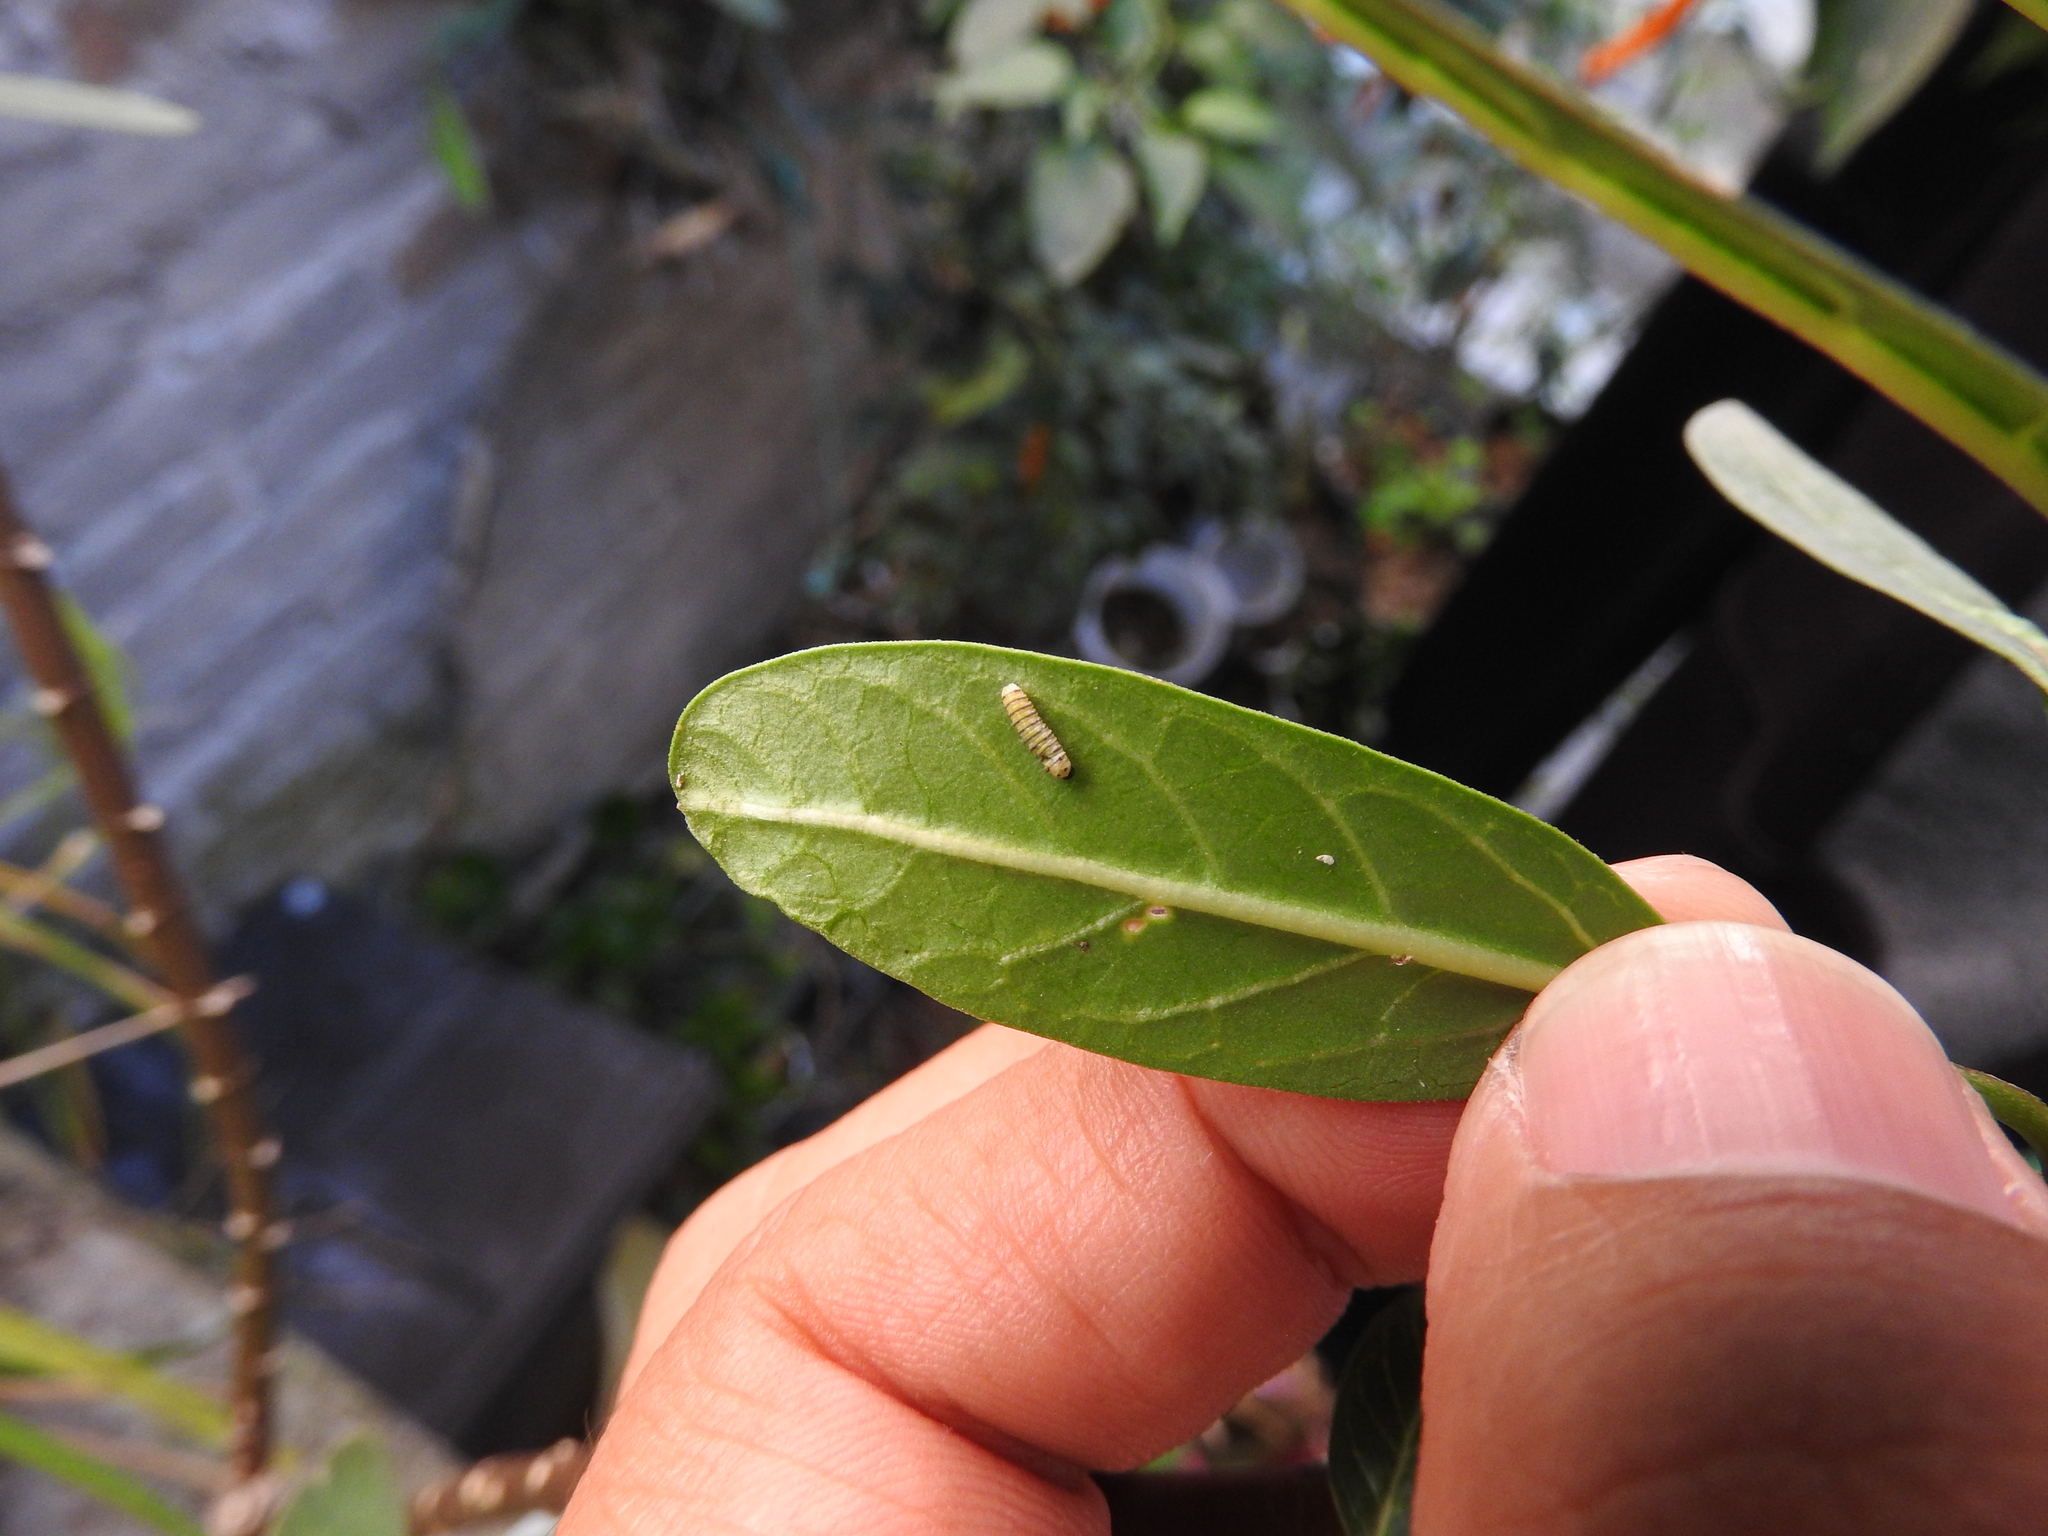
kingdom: Animalia
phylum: Arthropoda
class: Insecta
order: Lepidoptera
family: Nymphalidae
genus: Danaus
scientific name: Danaus plexippus
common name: Monarch
